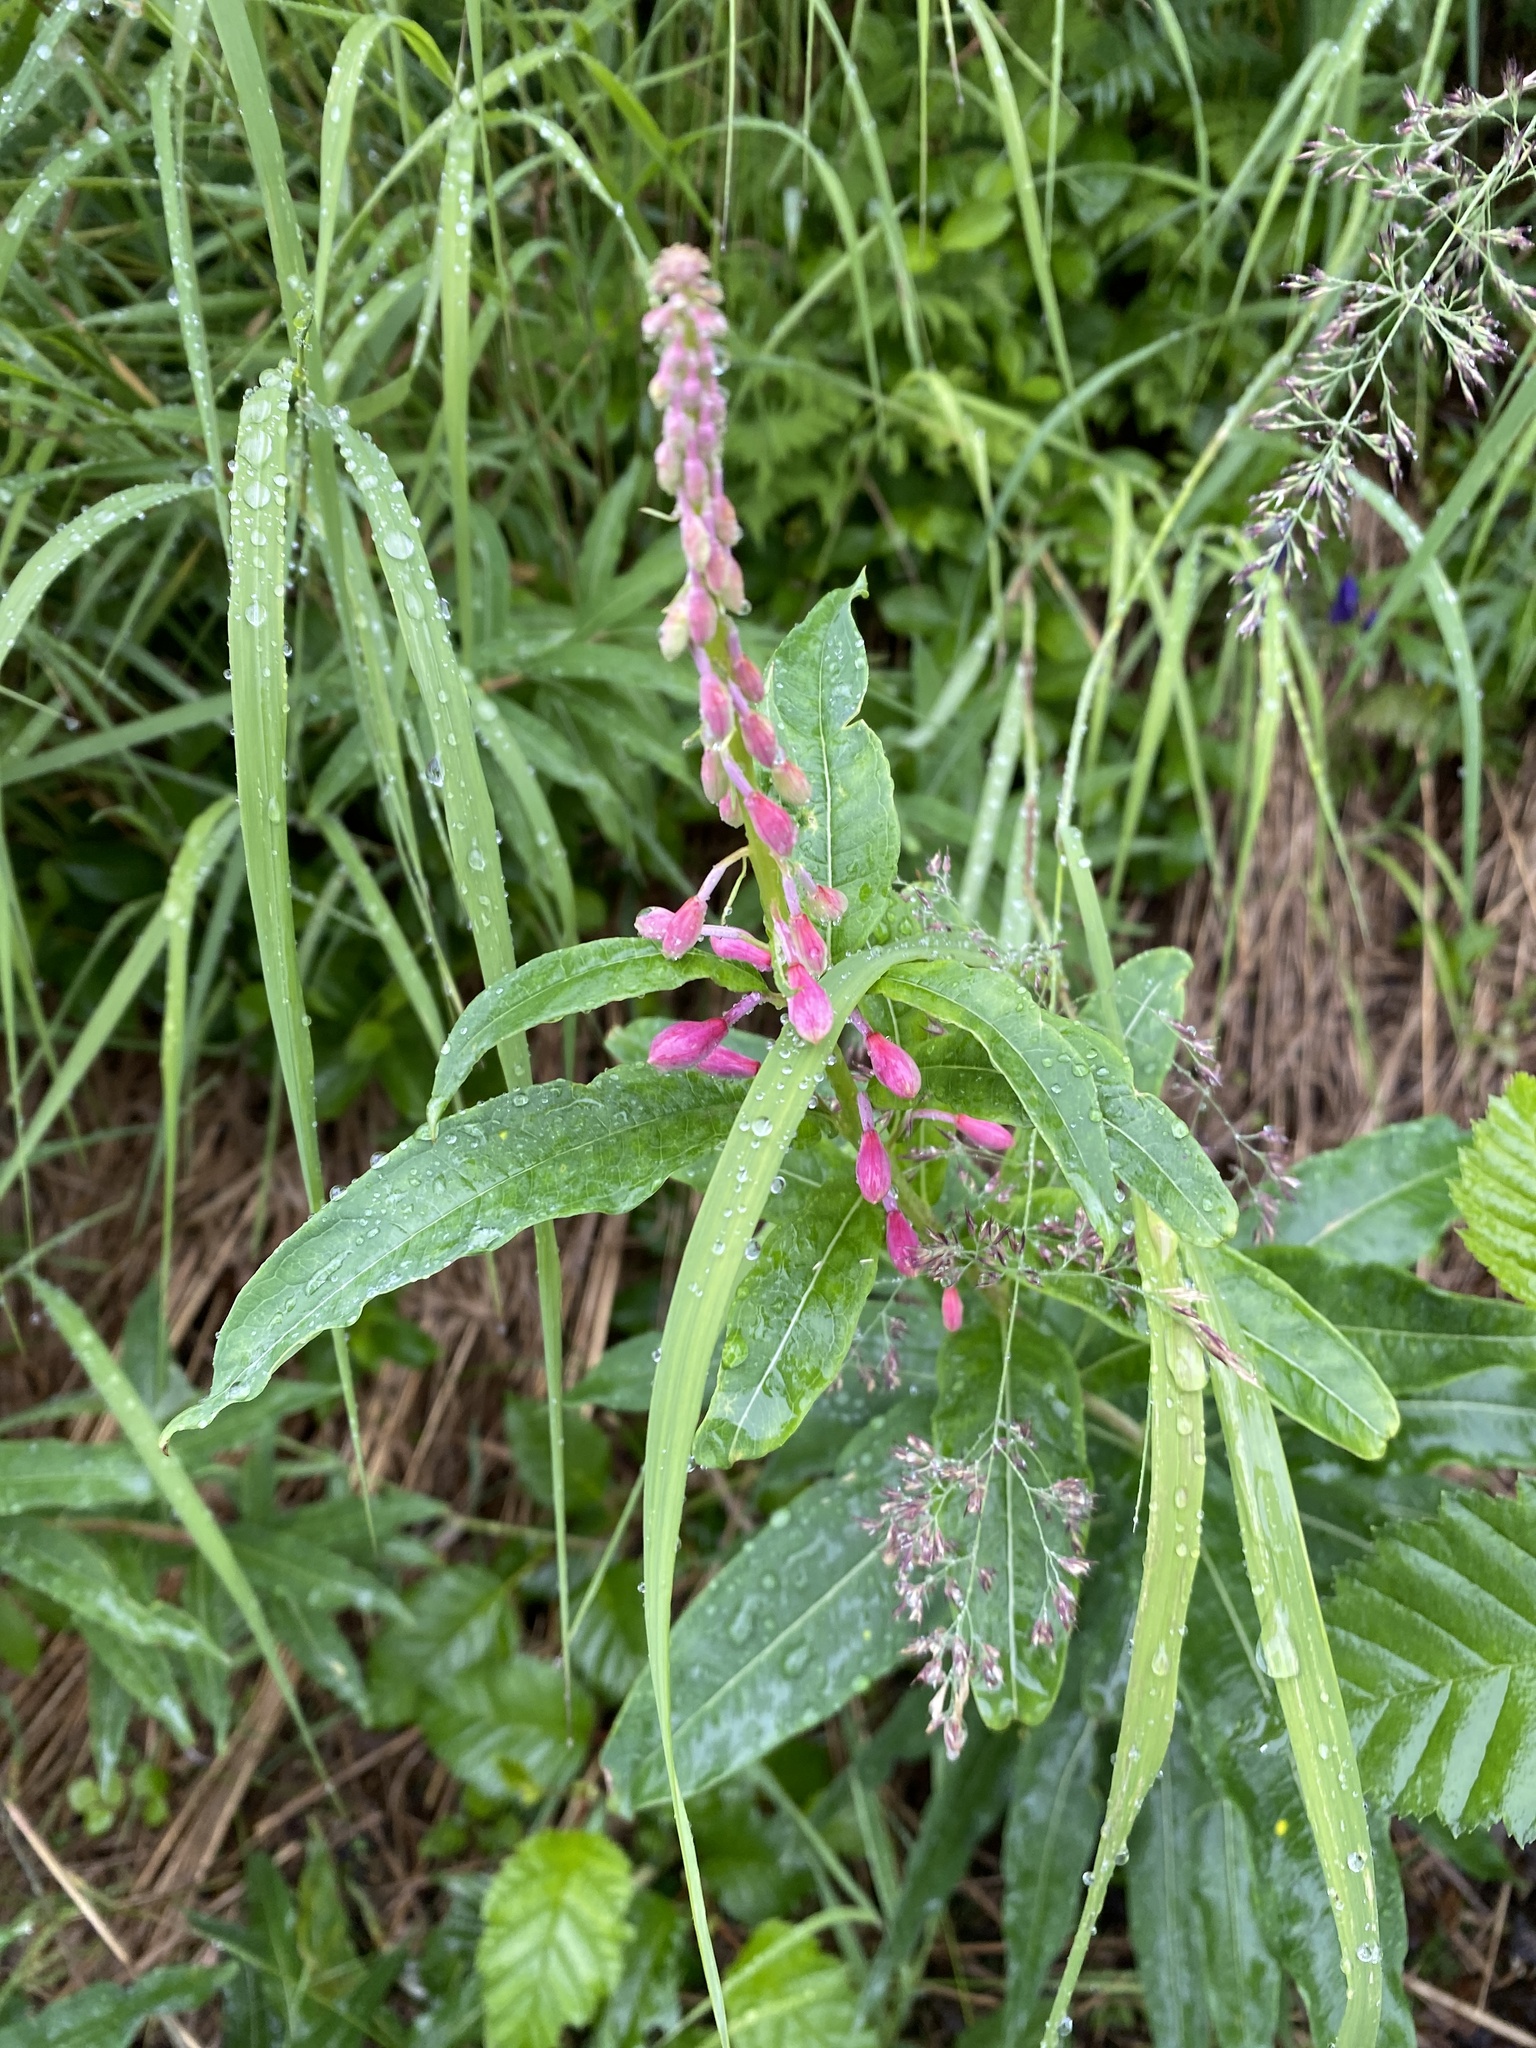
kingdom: Plantae
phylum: Tracheophyta
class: Magnoliopsida
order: Myrtales
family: Onagraceae
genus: Chamaenerion
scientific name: Chamaenerion angustifolium
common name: Fireweed
